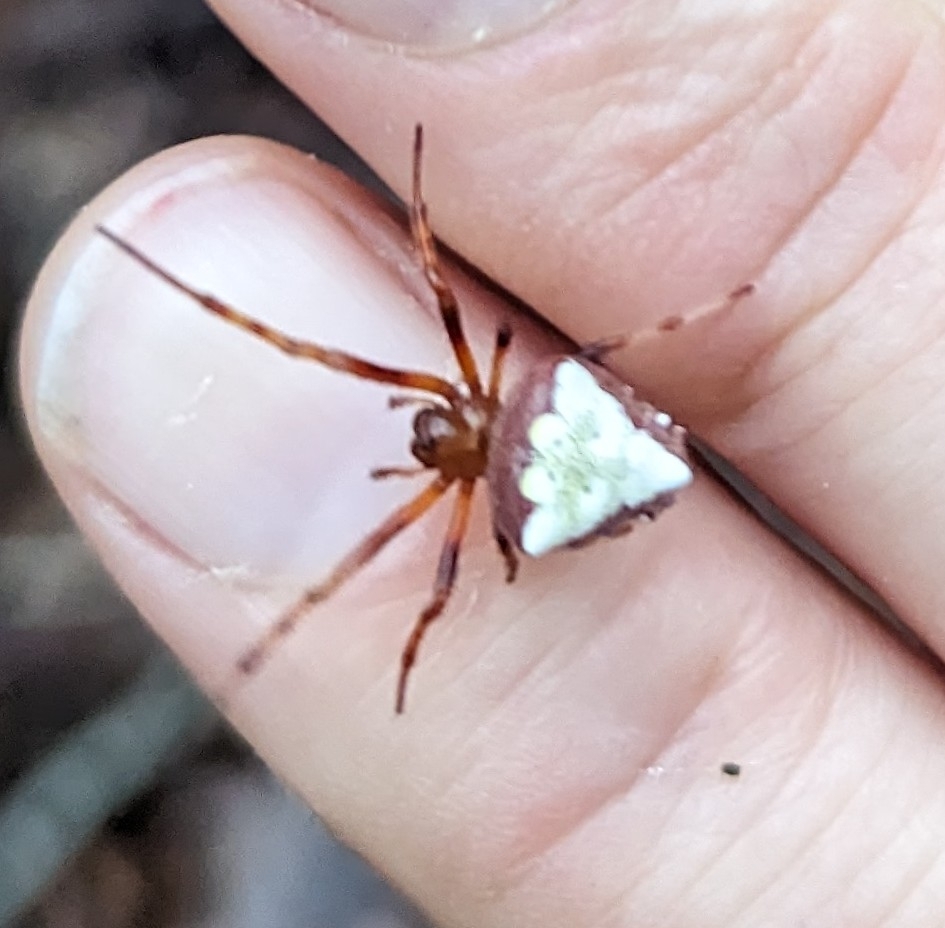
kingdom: Animalia
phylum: Arthropoda
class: Arachnida
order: Araneae
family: Araneidae
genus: Verrucosa
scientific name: Verrucosa arenata
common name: Orb weavers
